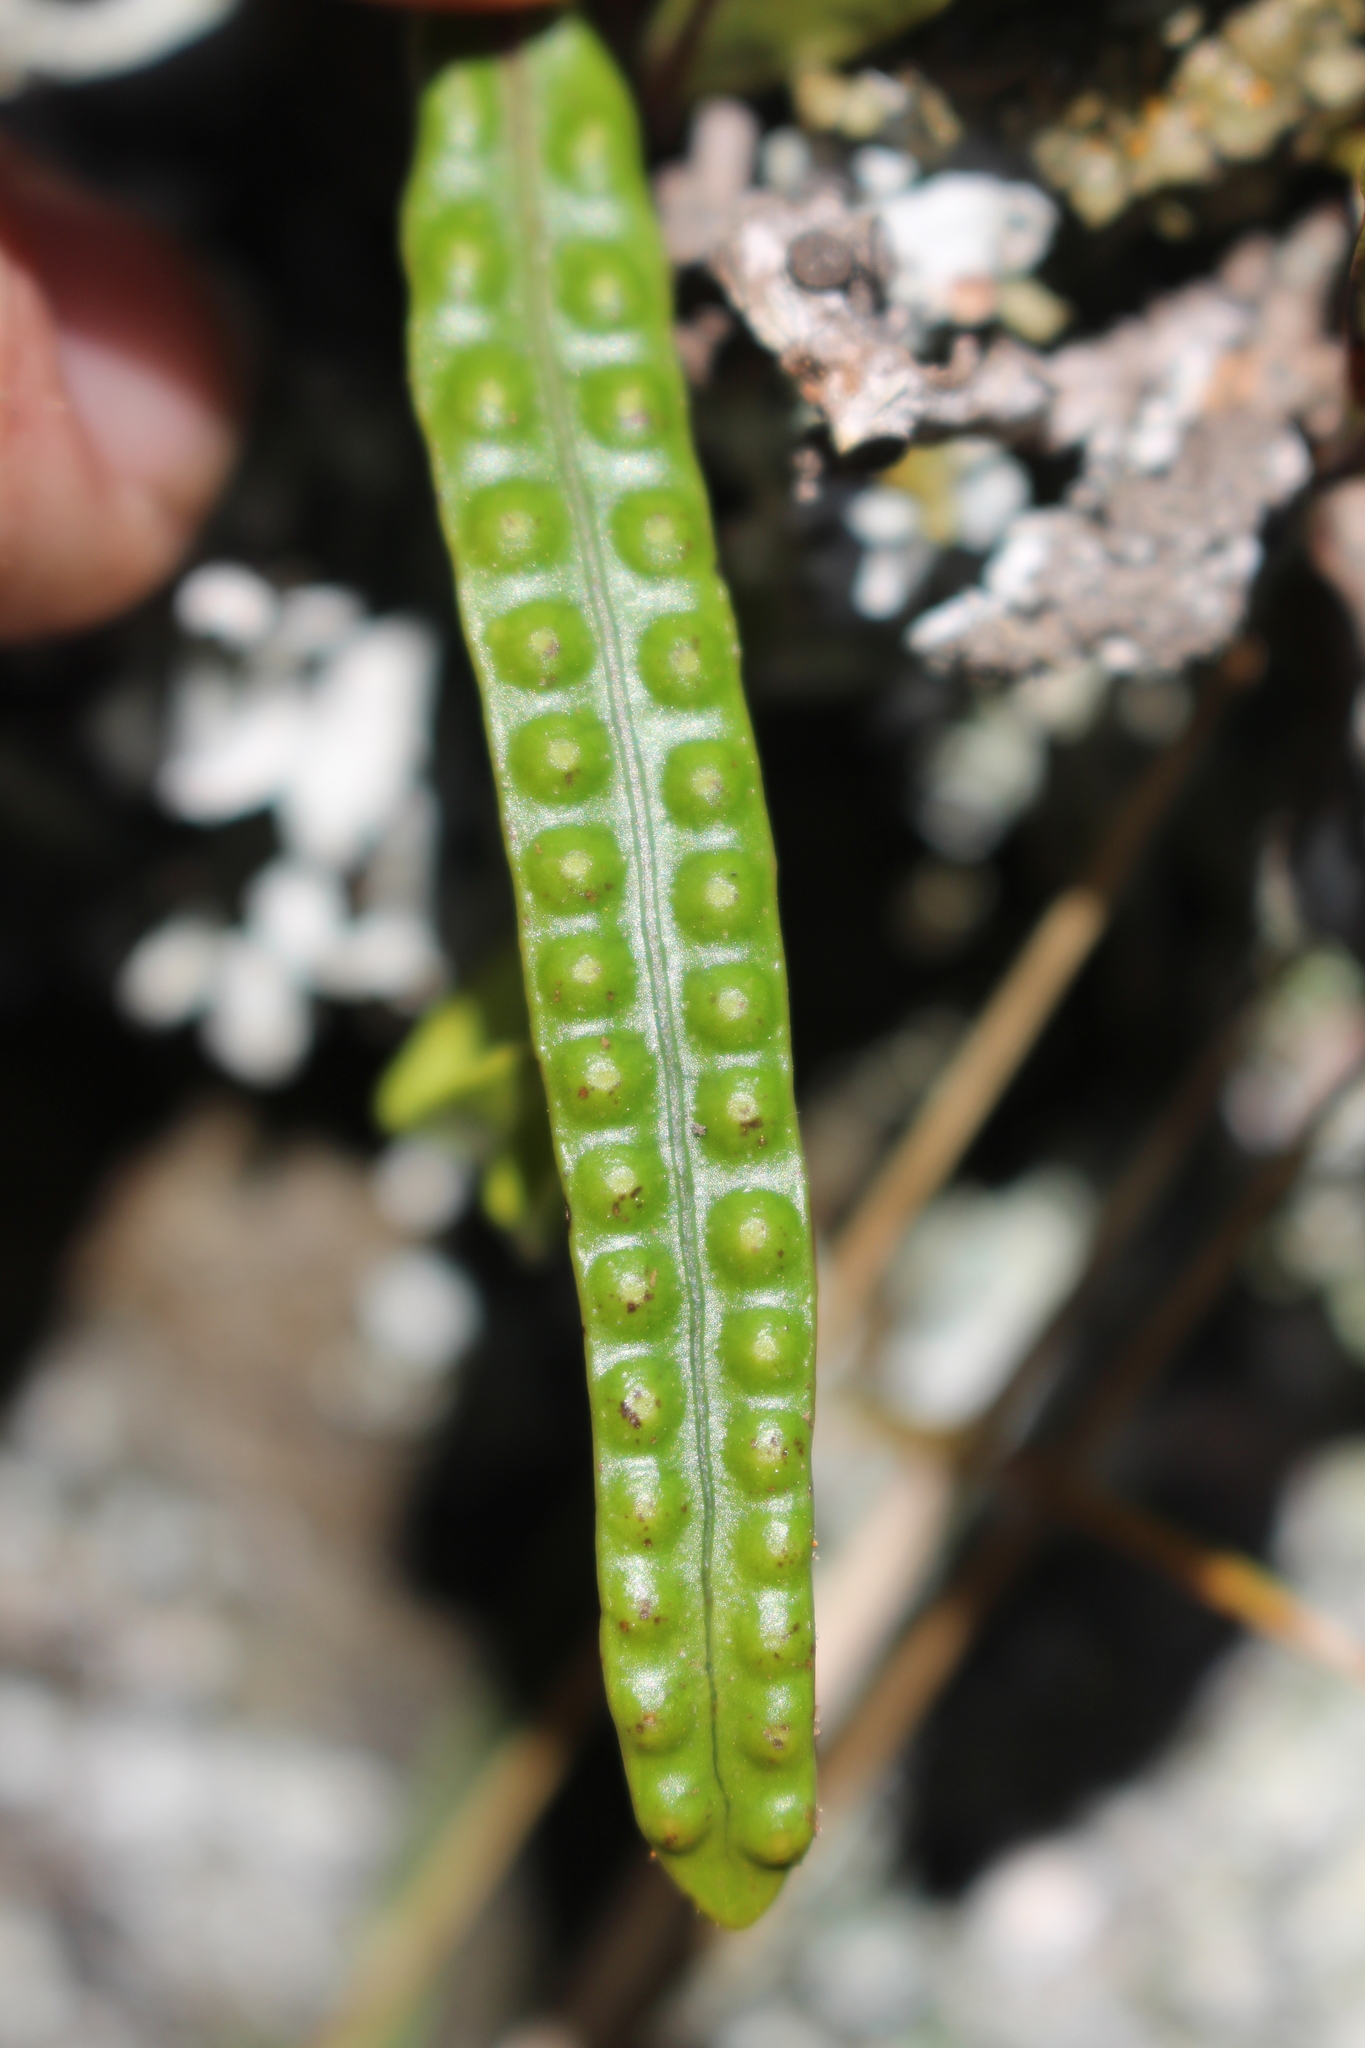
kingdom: Plantae
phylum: Tracheophyta
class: Polypodiopsida
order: Polypodiales
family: Polypodiaceae
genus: Lecanopteris
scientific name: Lecanopteris pustulata
